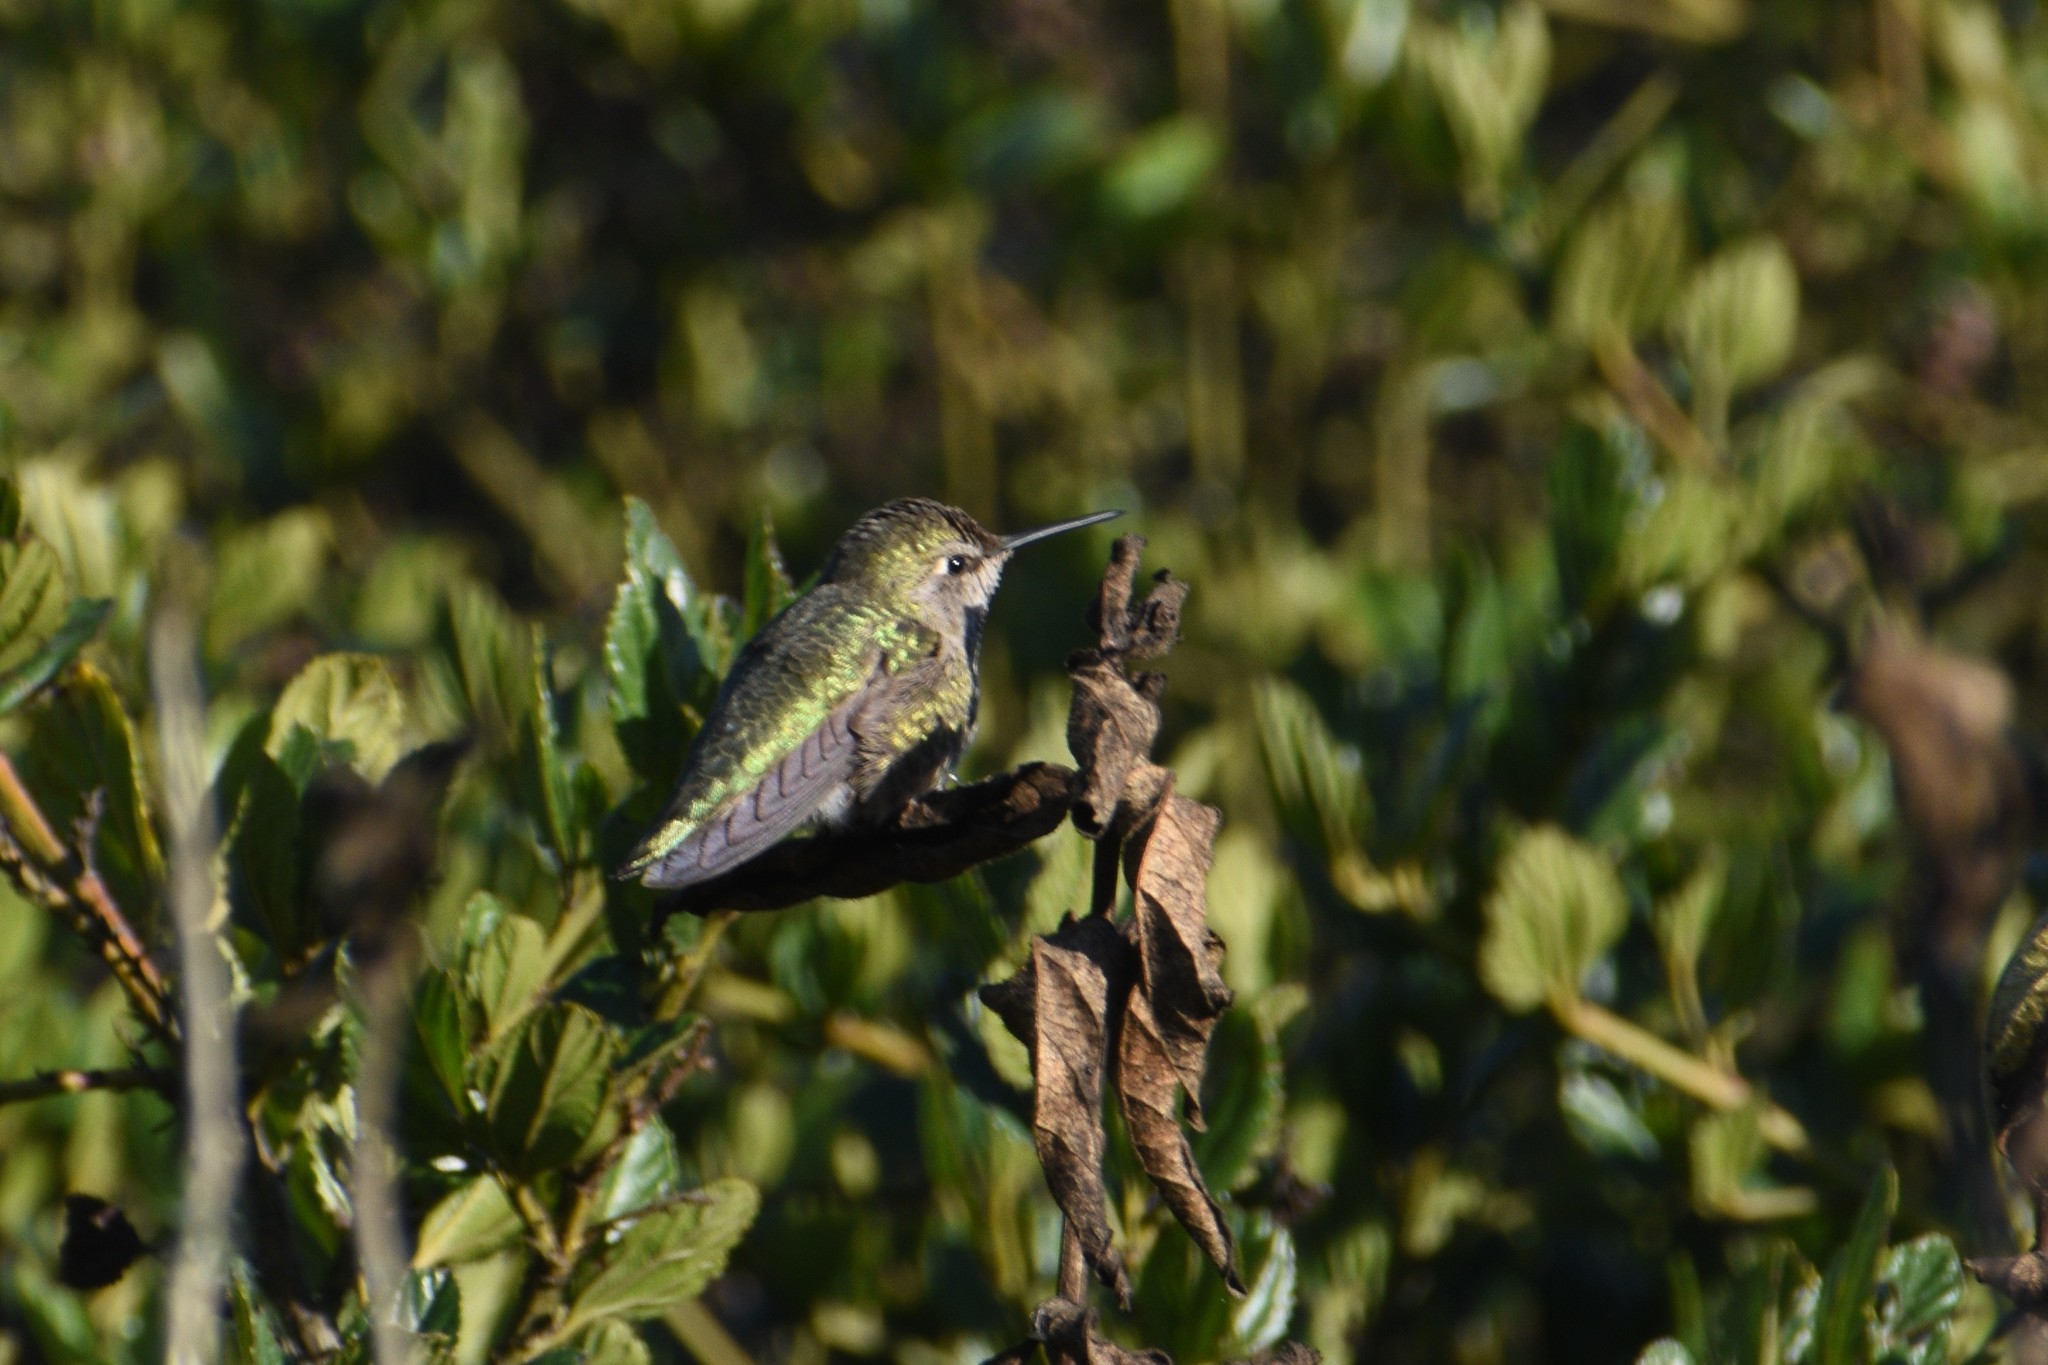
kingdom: Animalia
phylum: Chordata
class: Aves
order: Apodiformes
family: Trochilidae
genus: Calypte
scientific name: Calypte anna
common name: Anna's hummingbird
